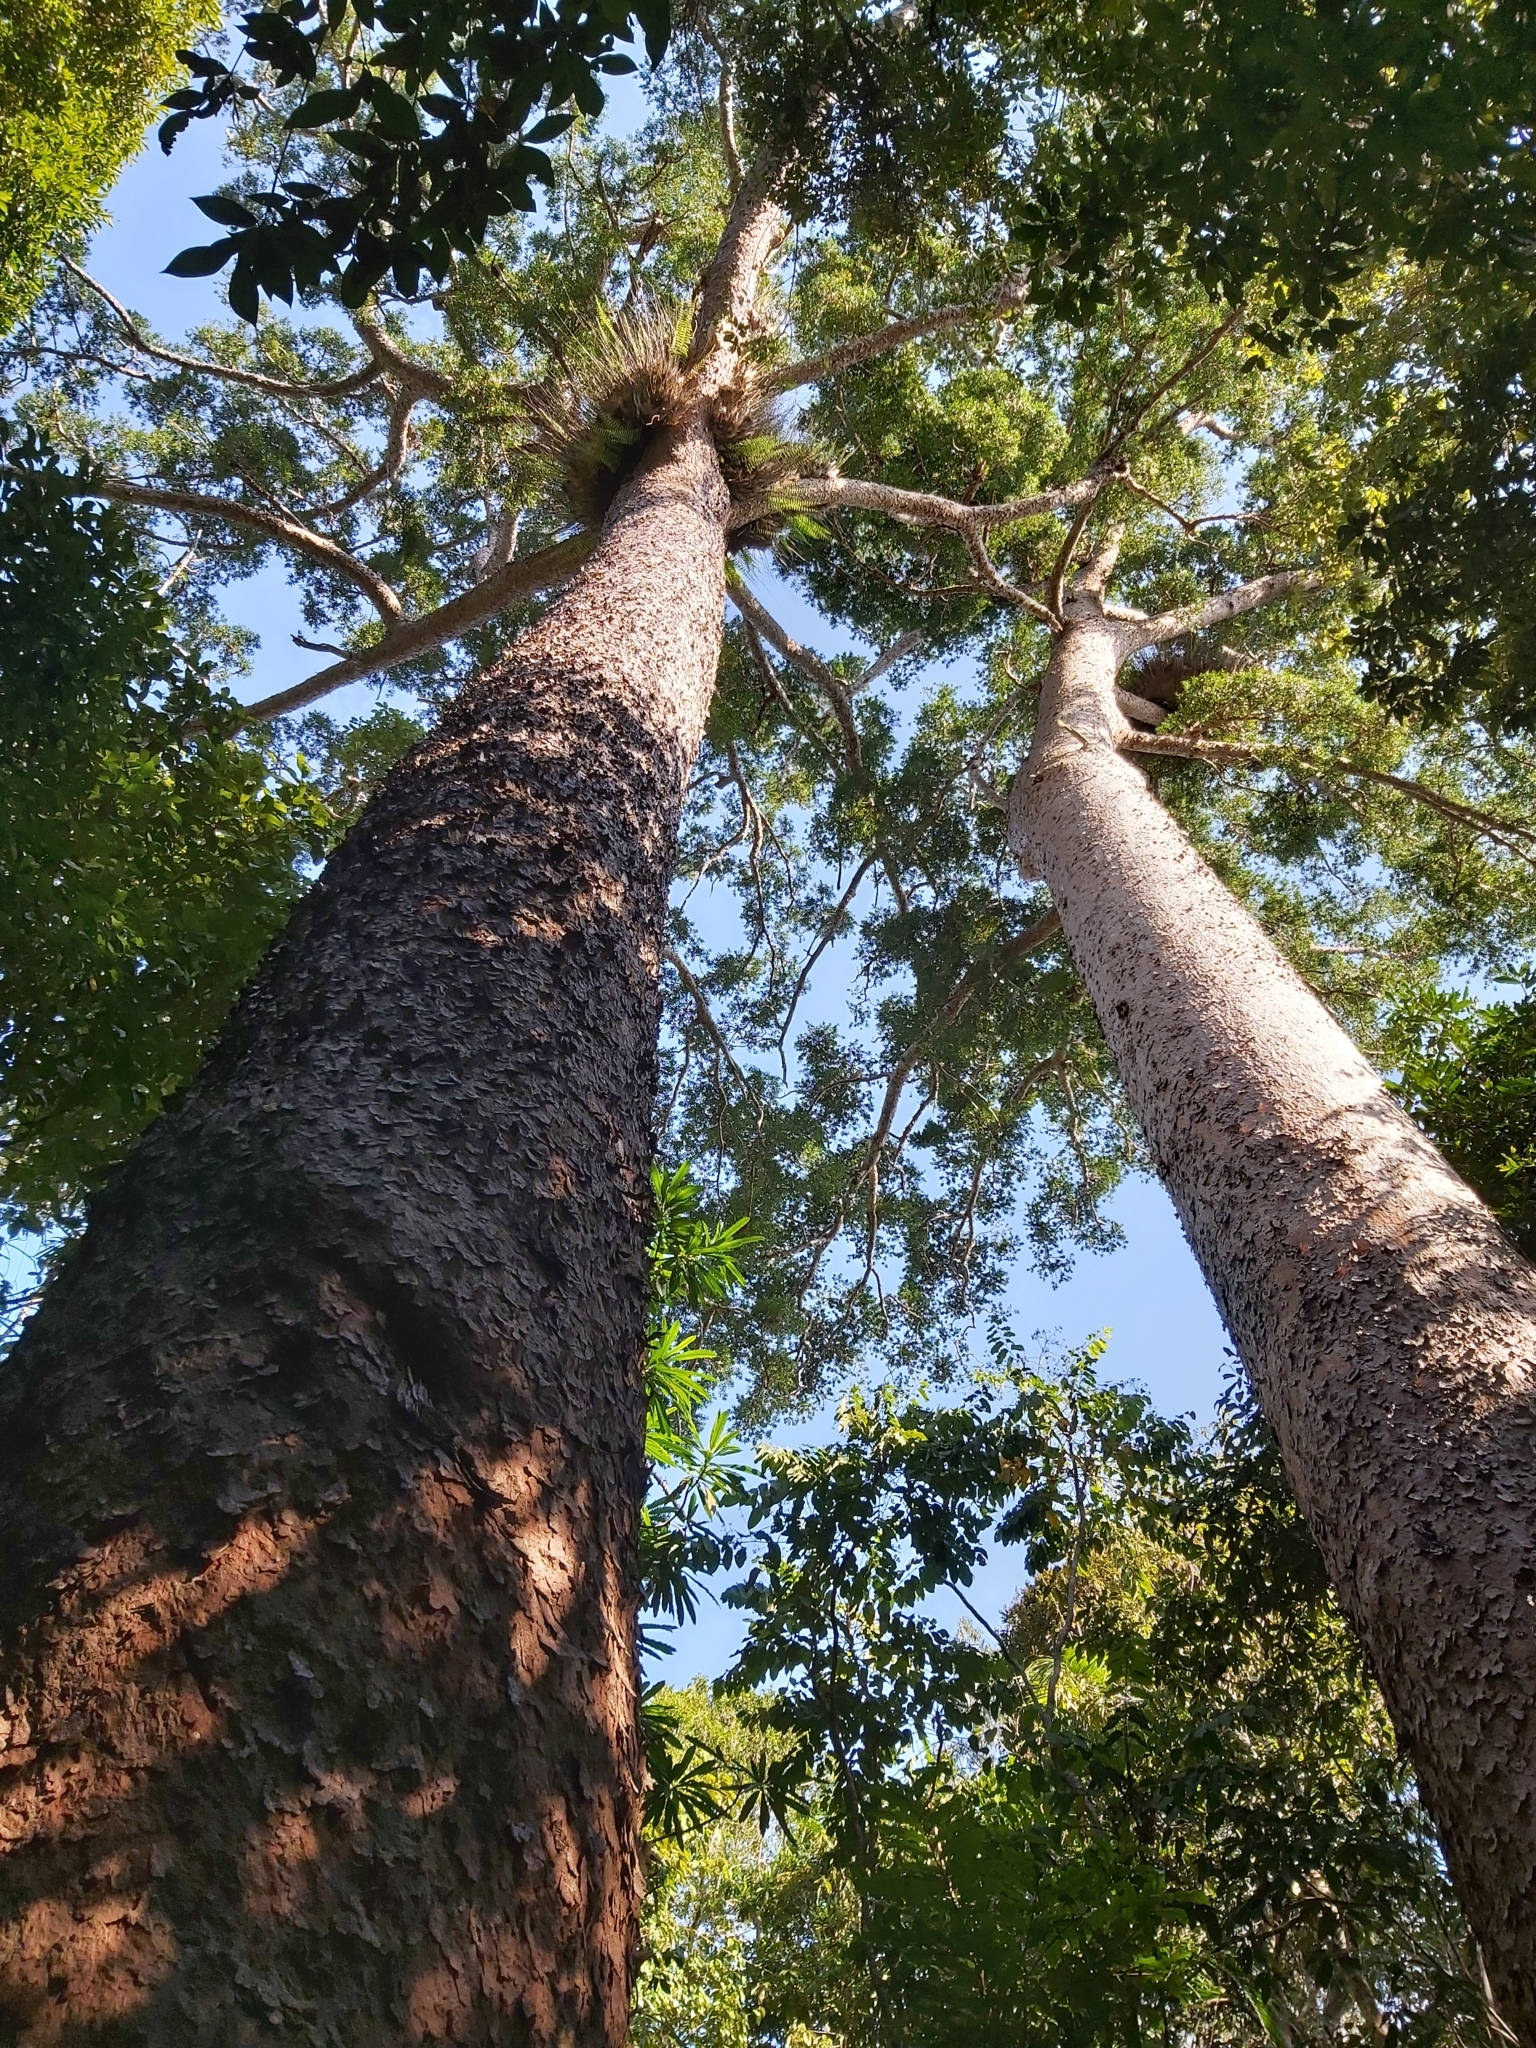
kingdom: Plantae
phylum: Tracheophyta
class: Pinopsida
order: Pinales
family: Araucariaceae
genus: Agathis
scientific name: Agathis robusta
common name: Australian-kauri
